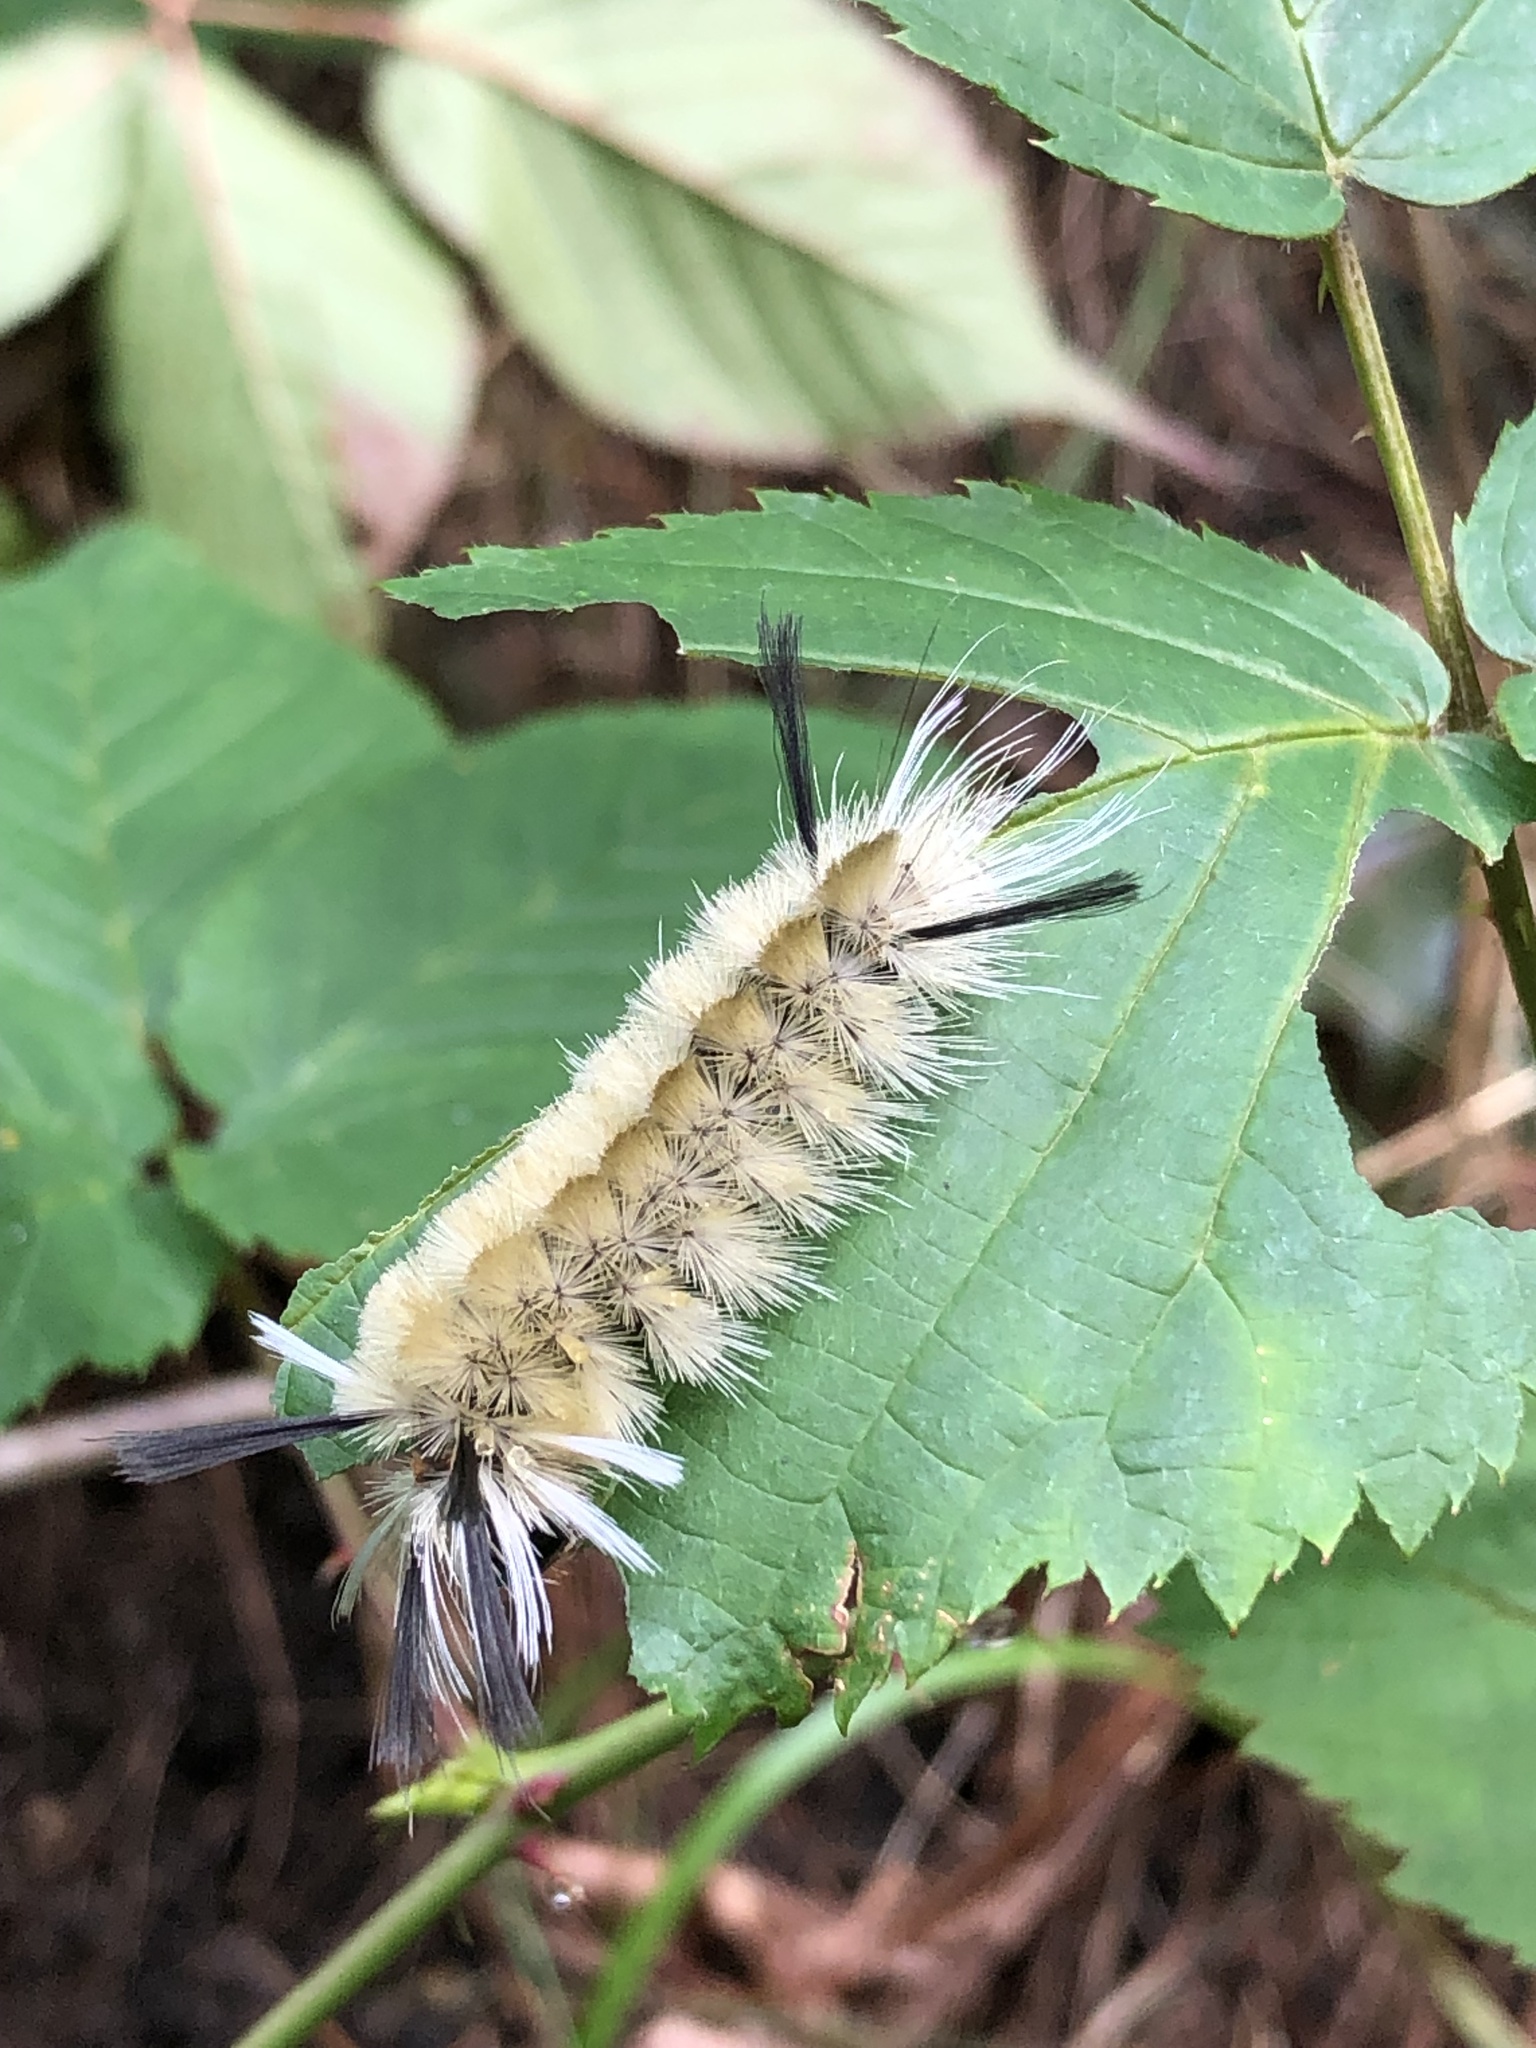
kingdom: Animalia
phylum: Arthropoda
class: Insecta
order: Lepidoptera
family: Erebidae
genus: Halysidota
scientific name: Halysidota tessellaris
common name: Banded tussock moth
